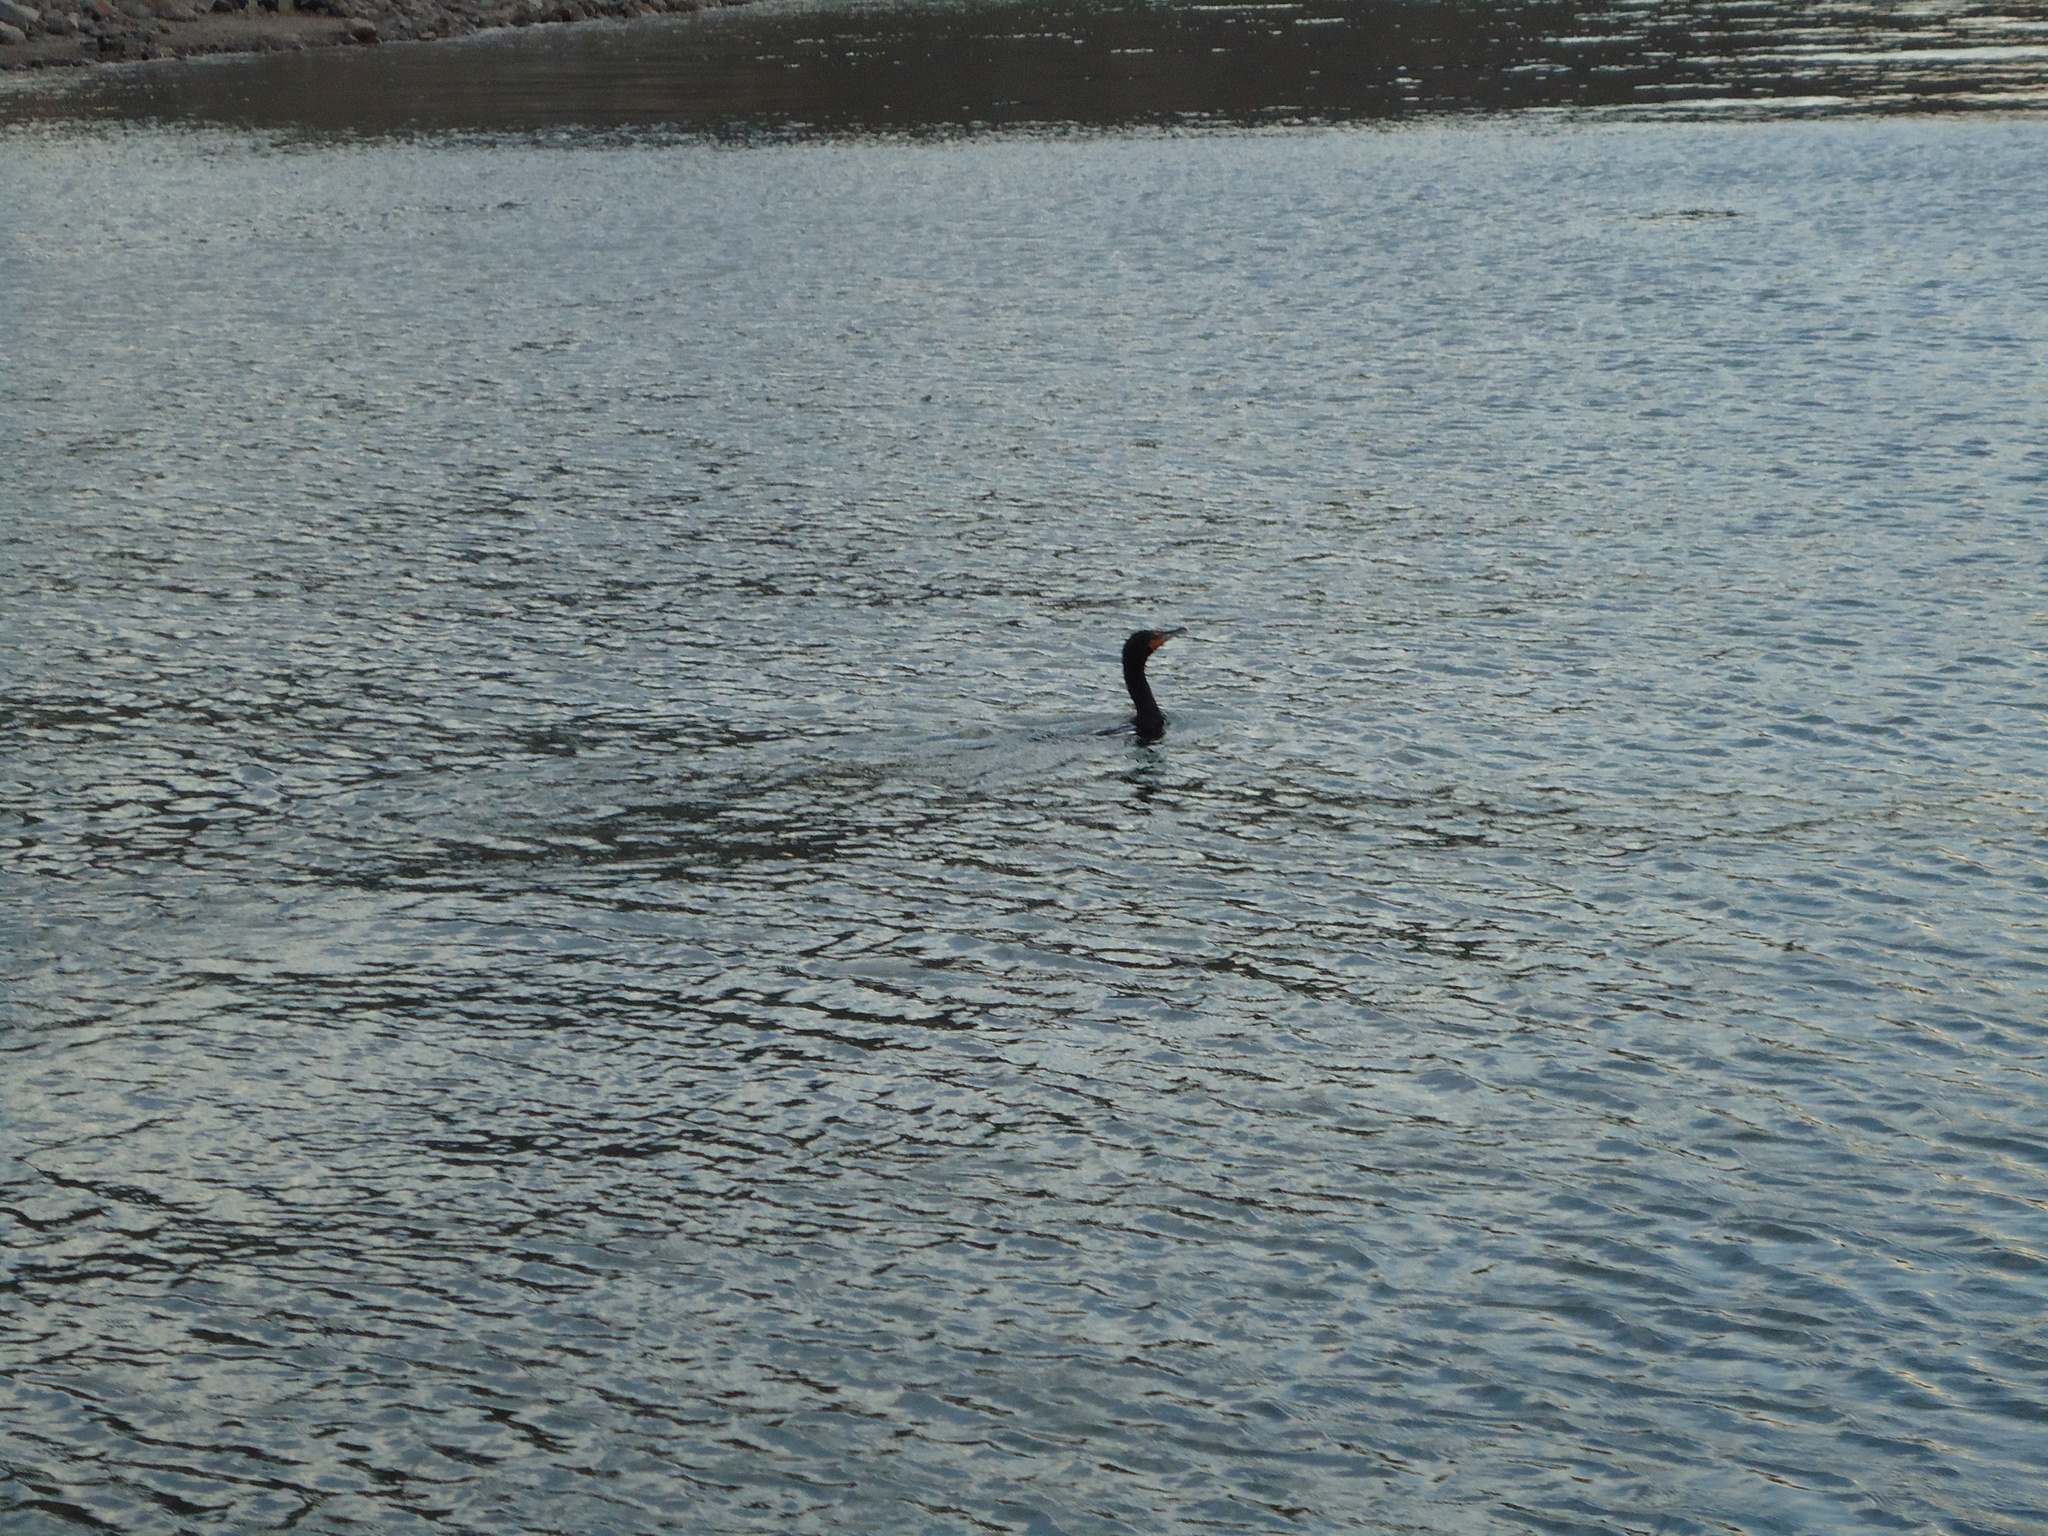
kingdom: Animalia
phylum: Chordata
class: Aves
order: Suliformes
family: Phalacrocoracidae
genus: Phalacrocorax
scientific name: Phalacrocorax auritus
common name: Double-crested cormorant
